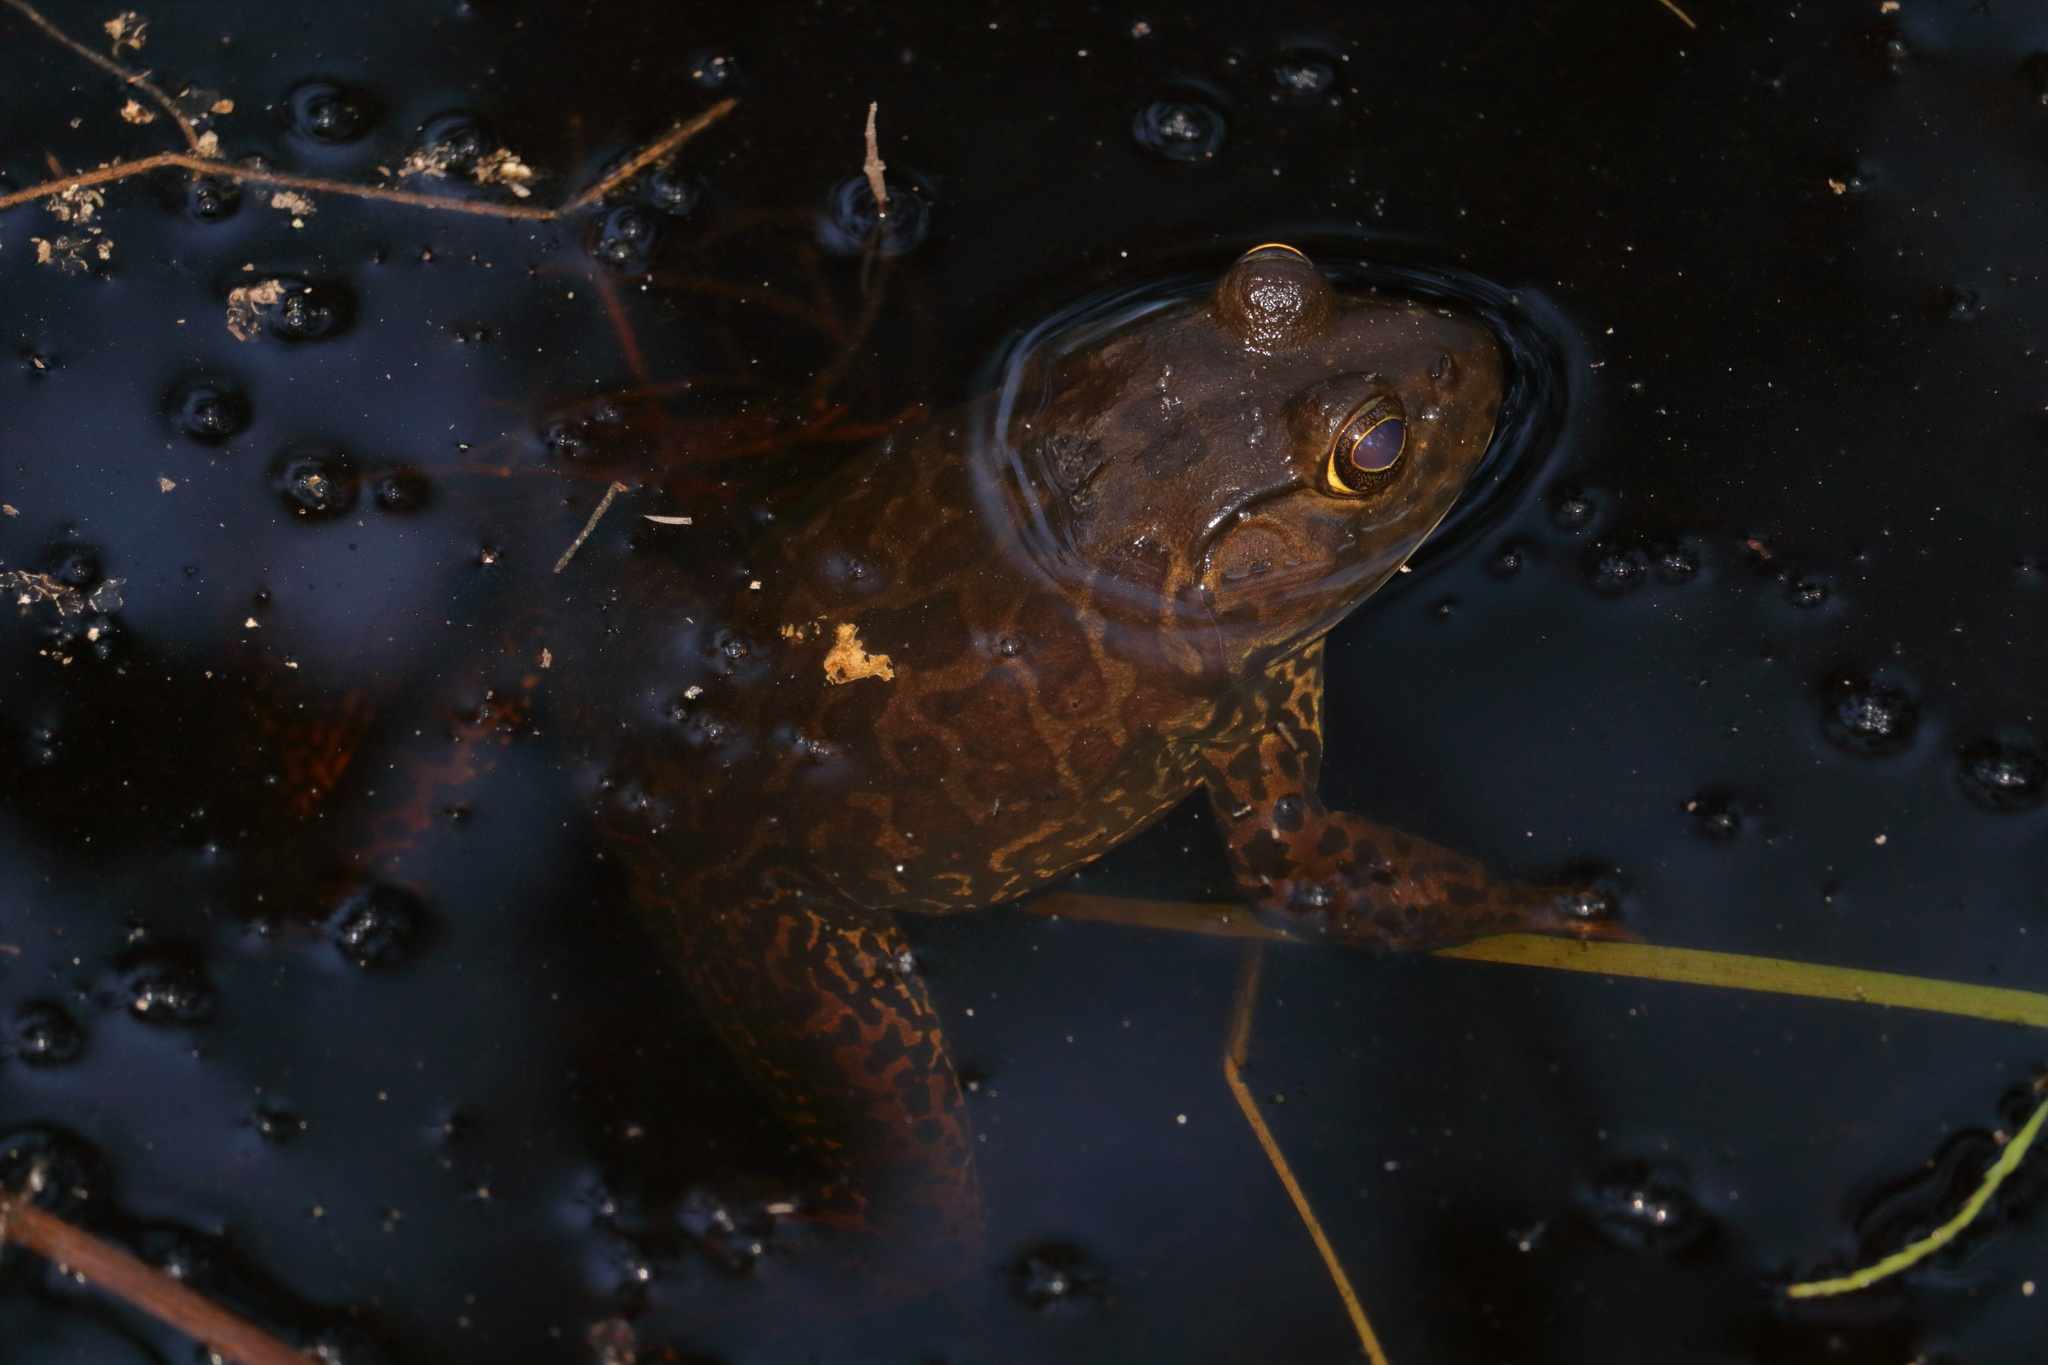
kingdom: Animalia
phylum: Chordata
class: Amphibia
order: Anura
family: Ranidae
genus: Lithobates
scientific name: Lithobates catesbeianus
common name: American bullfrog
